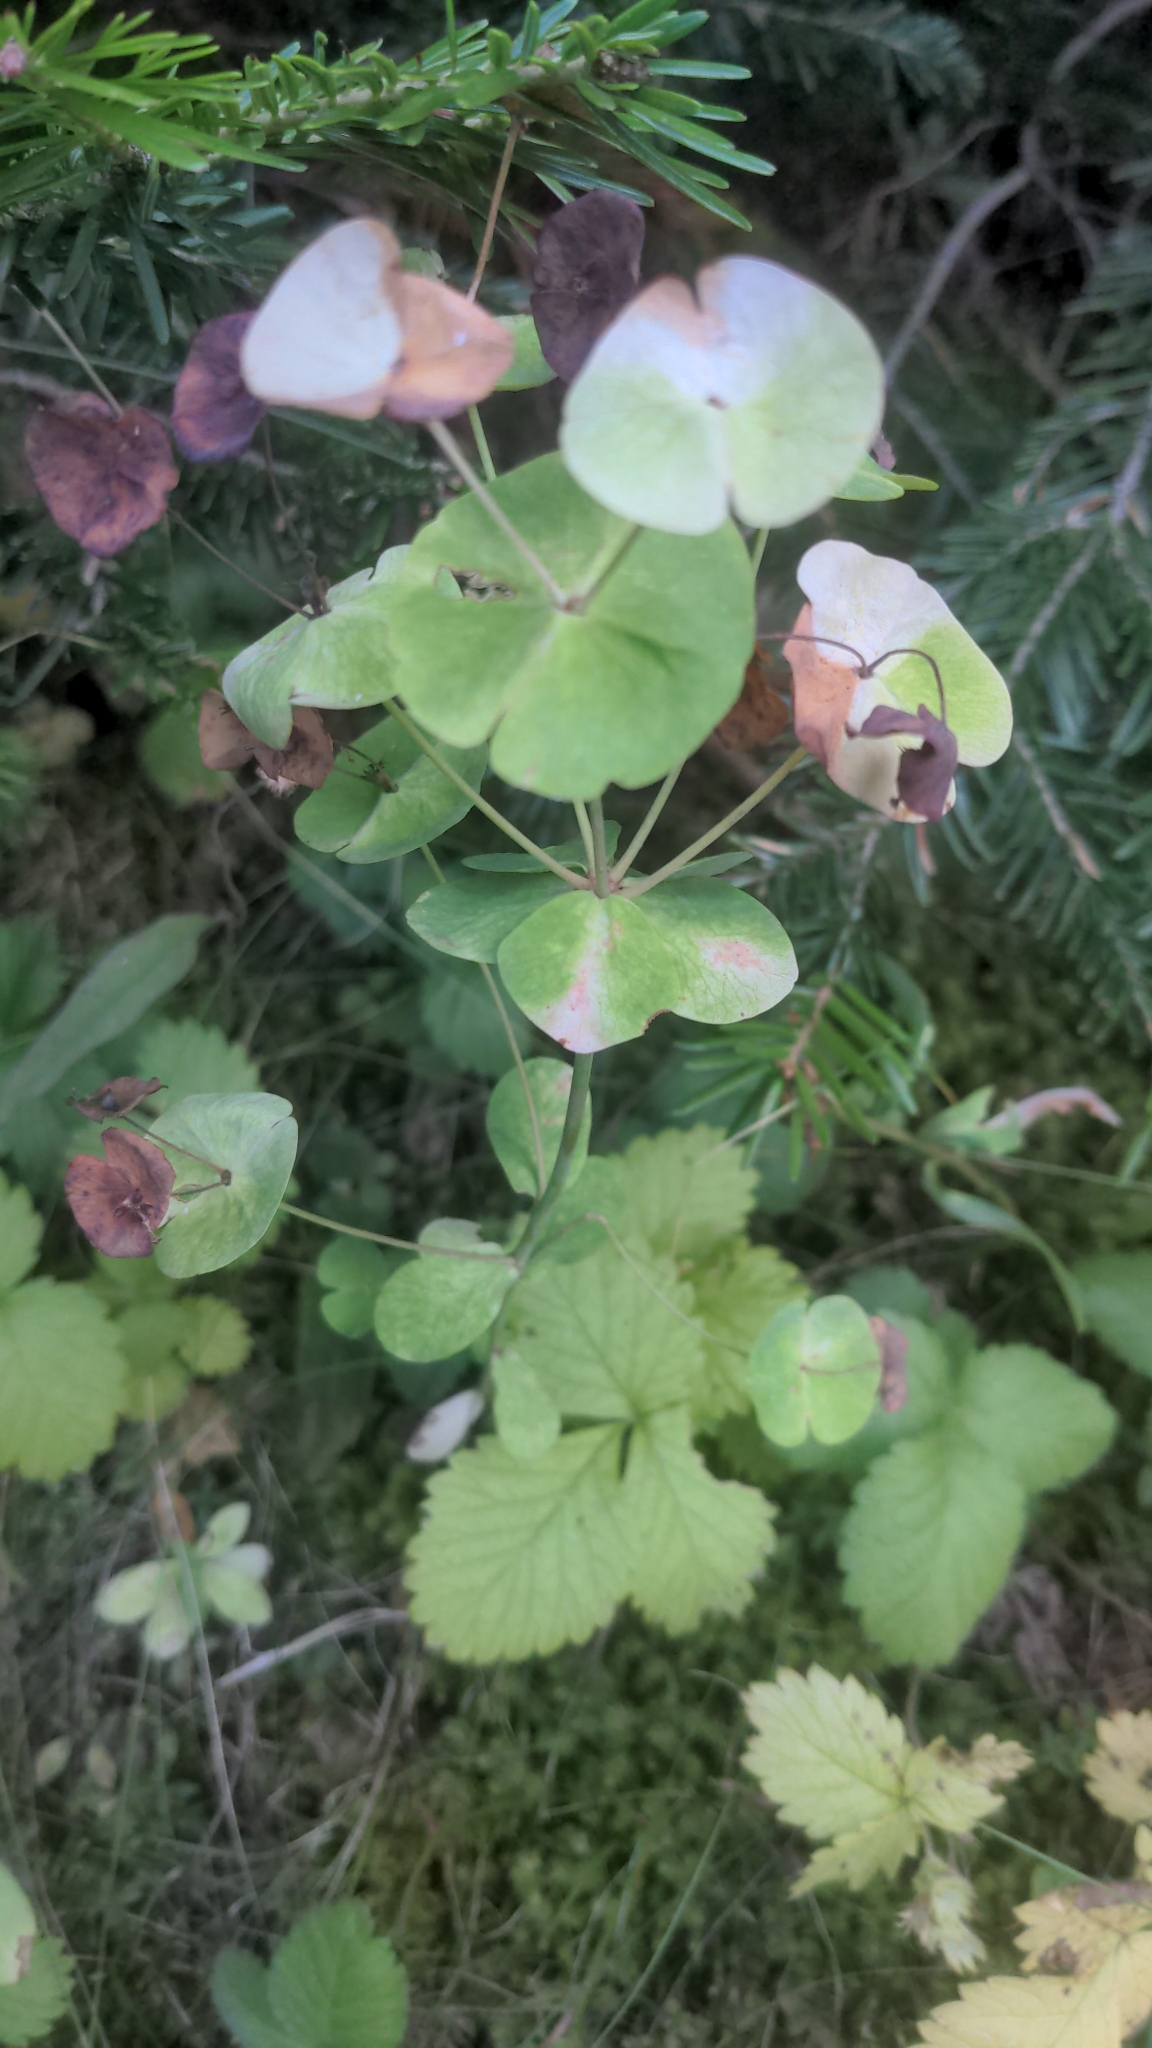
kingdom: Plantae
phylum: Tracheophyta
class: Magnoliopsida
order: Malpighiales
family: Euphorbiaceae
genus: Euphorbia
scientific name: Euphorbia amygdaloides
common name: Wood spurge
